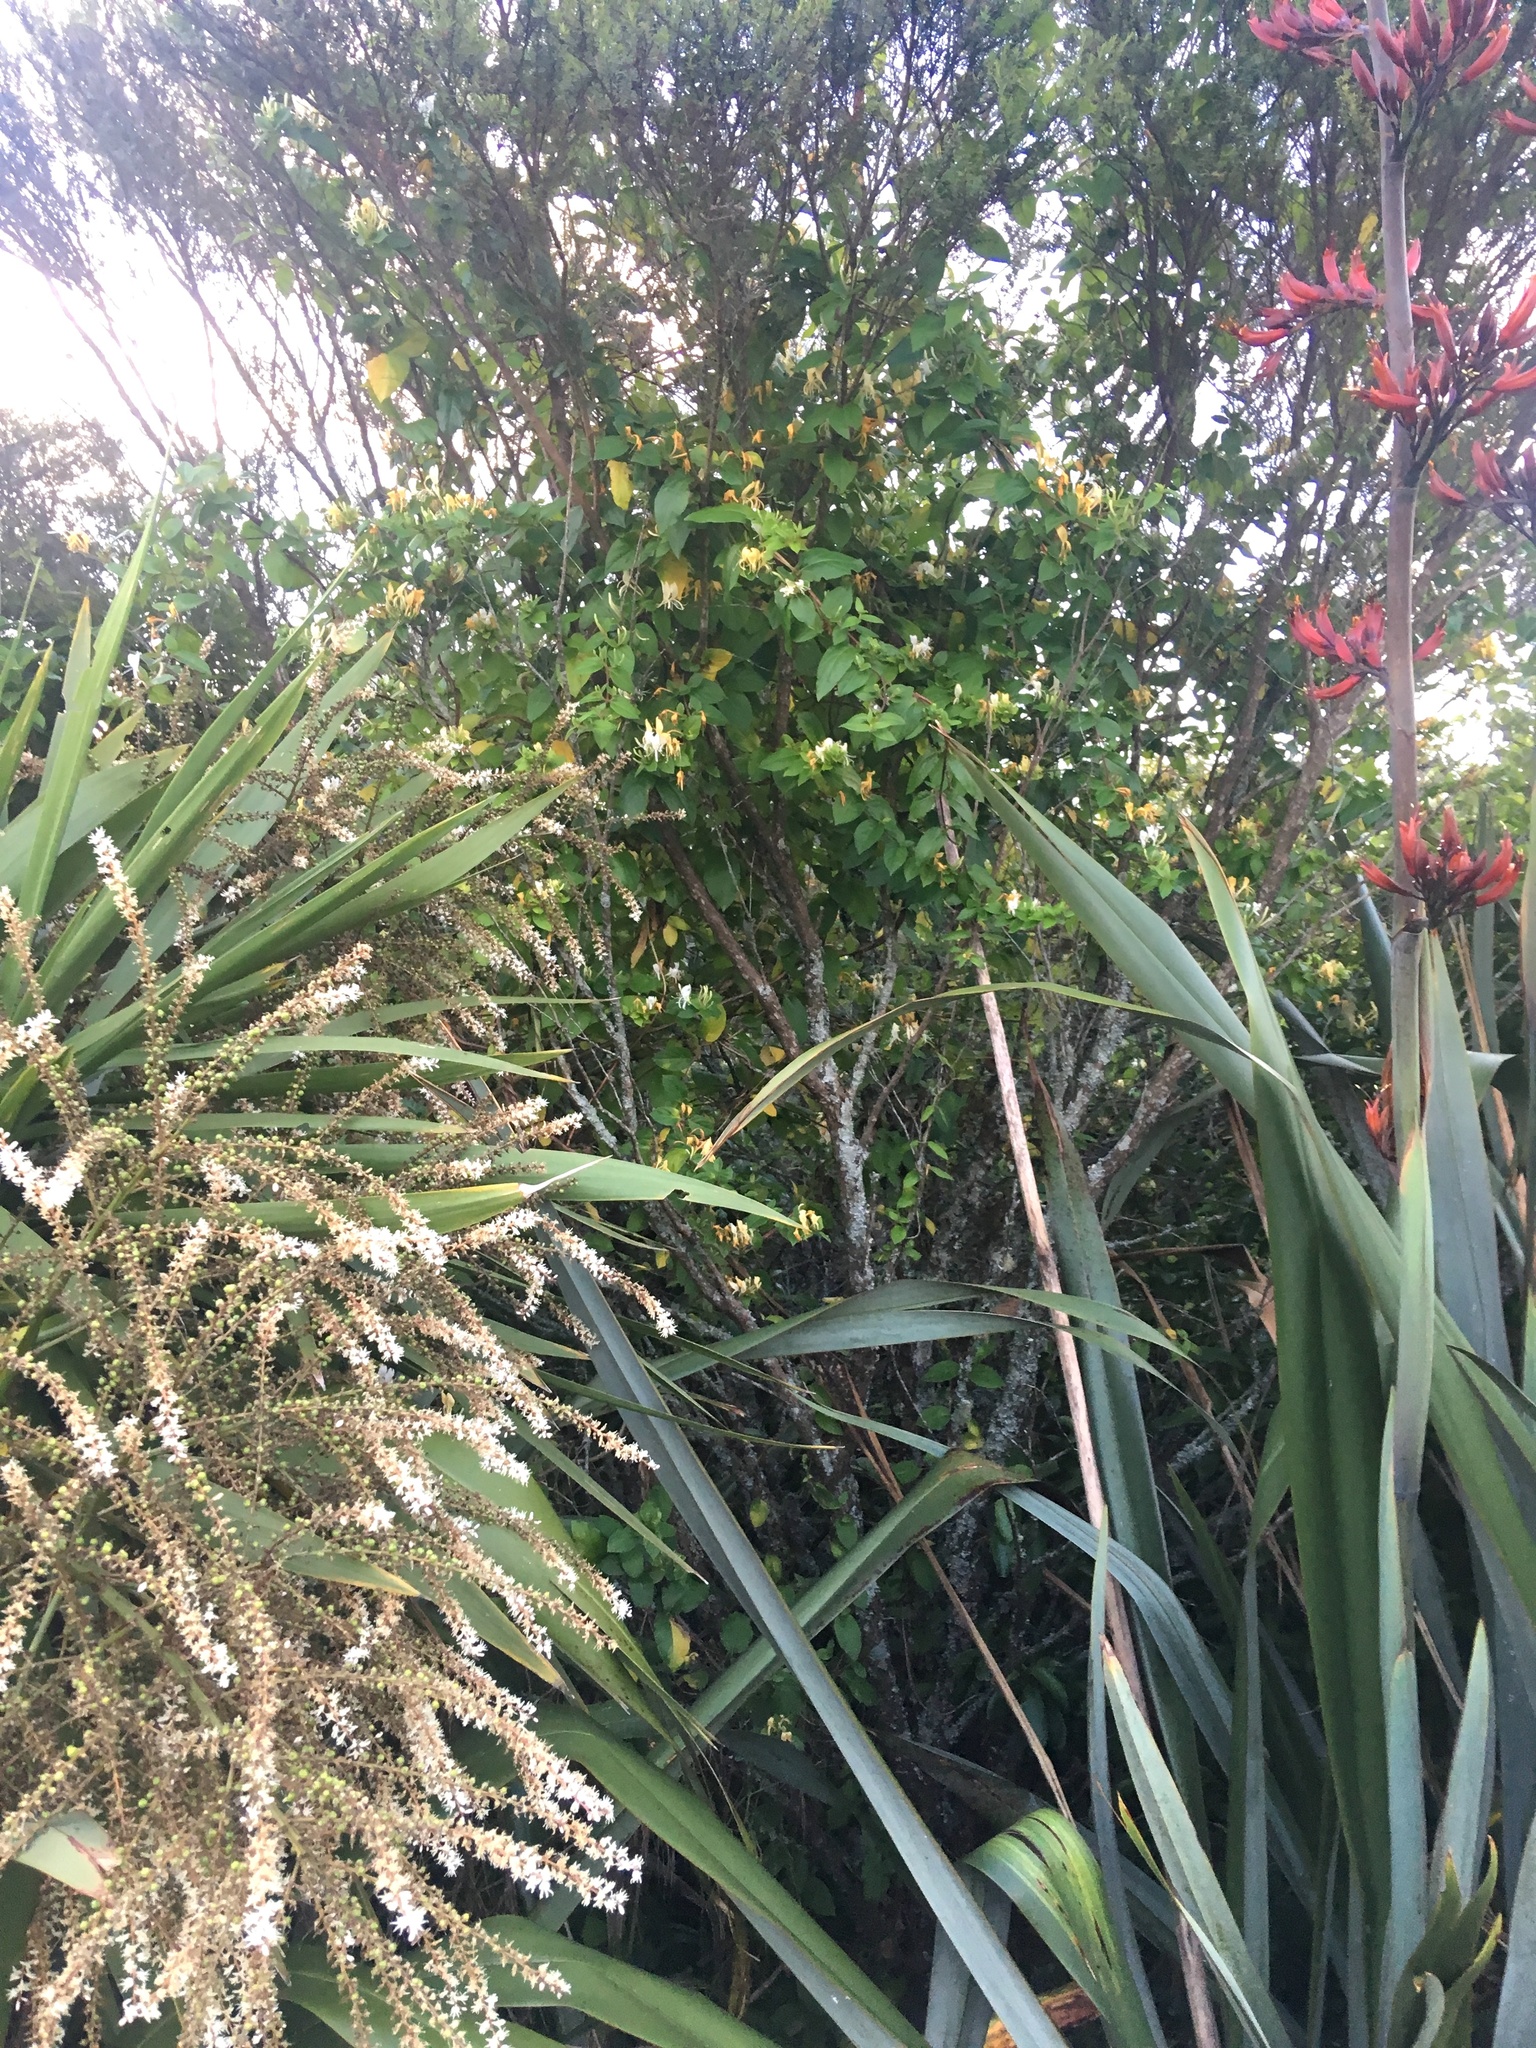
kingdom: Plantae
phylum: Tracheophyta
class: Magnoliopsida
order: Dipsacales
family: Caprifoliaceae
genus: Lonicera
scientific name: Lonicera japonica
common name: Japanese honeysuckle
